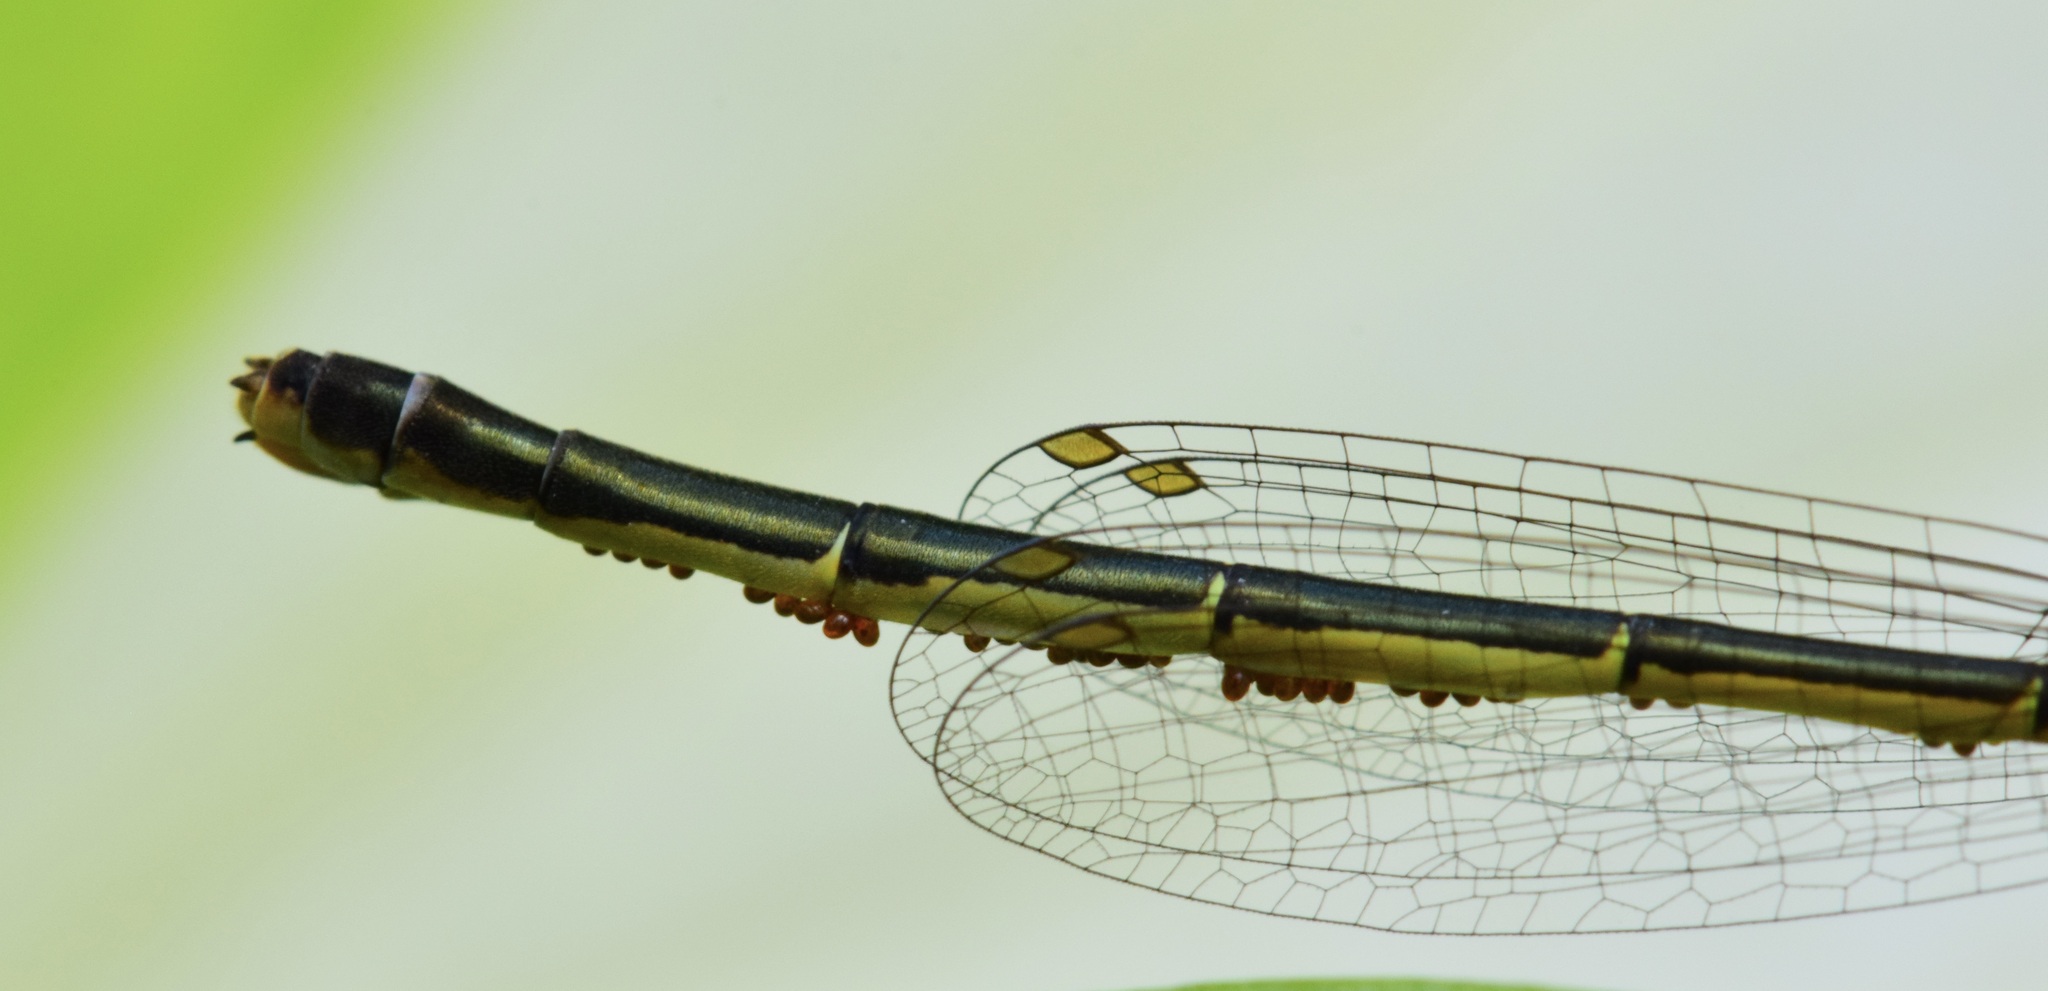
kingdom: Animalia
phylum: Arthropoda
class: Insecta
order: Odonata
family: Coenagrionidae
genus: Ischnura
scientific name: Ischnura verticalis
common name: Eastern forktail
